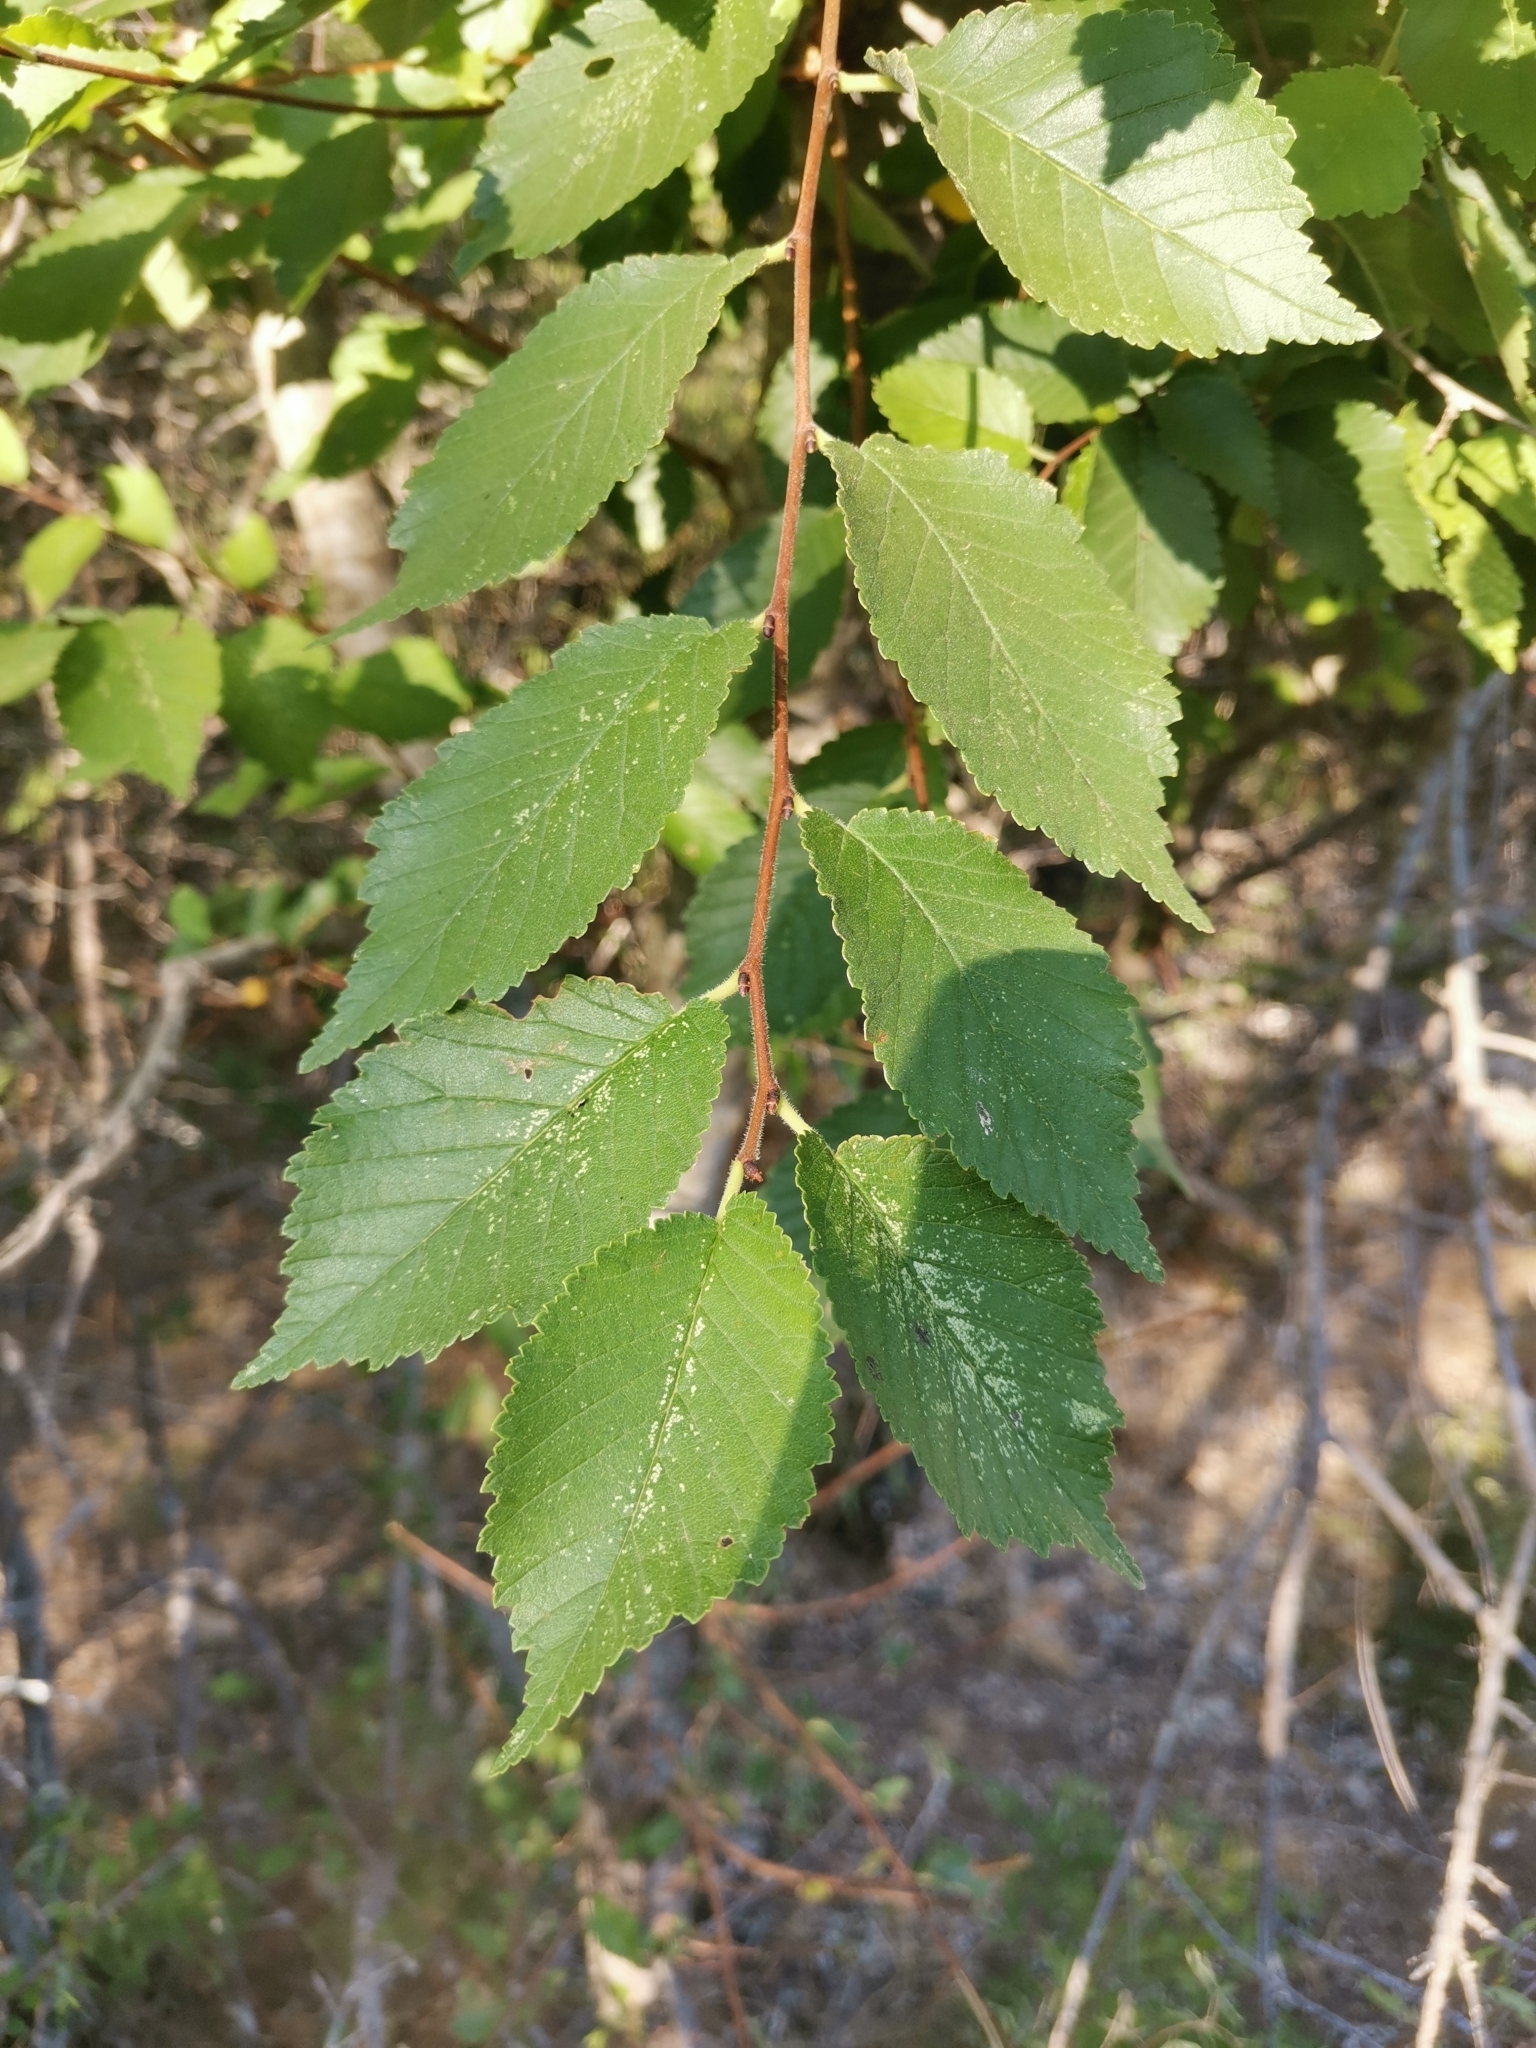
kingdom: Plantae
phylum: Tracheophyta
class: Magnoliopsida
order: Rosales
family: Ulmaceae
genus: Ulmus
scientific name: Ulmus minor
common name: Small-leaved elm
